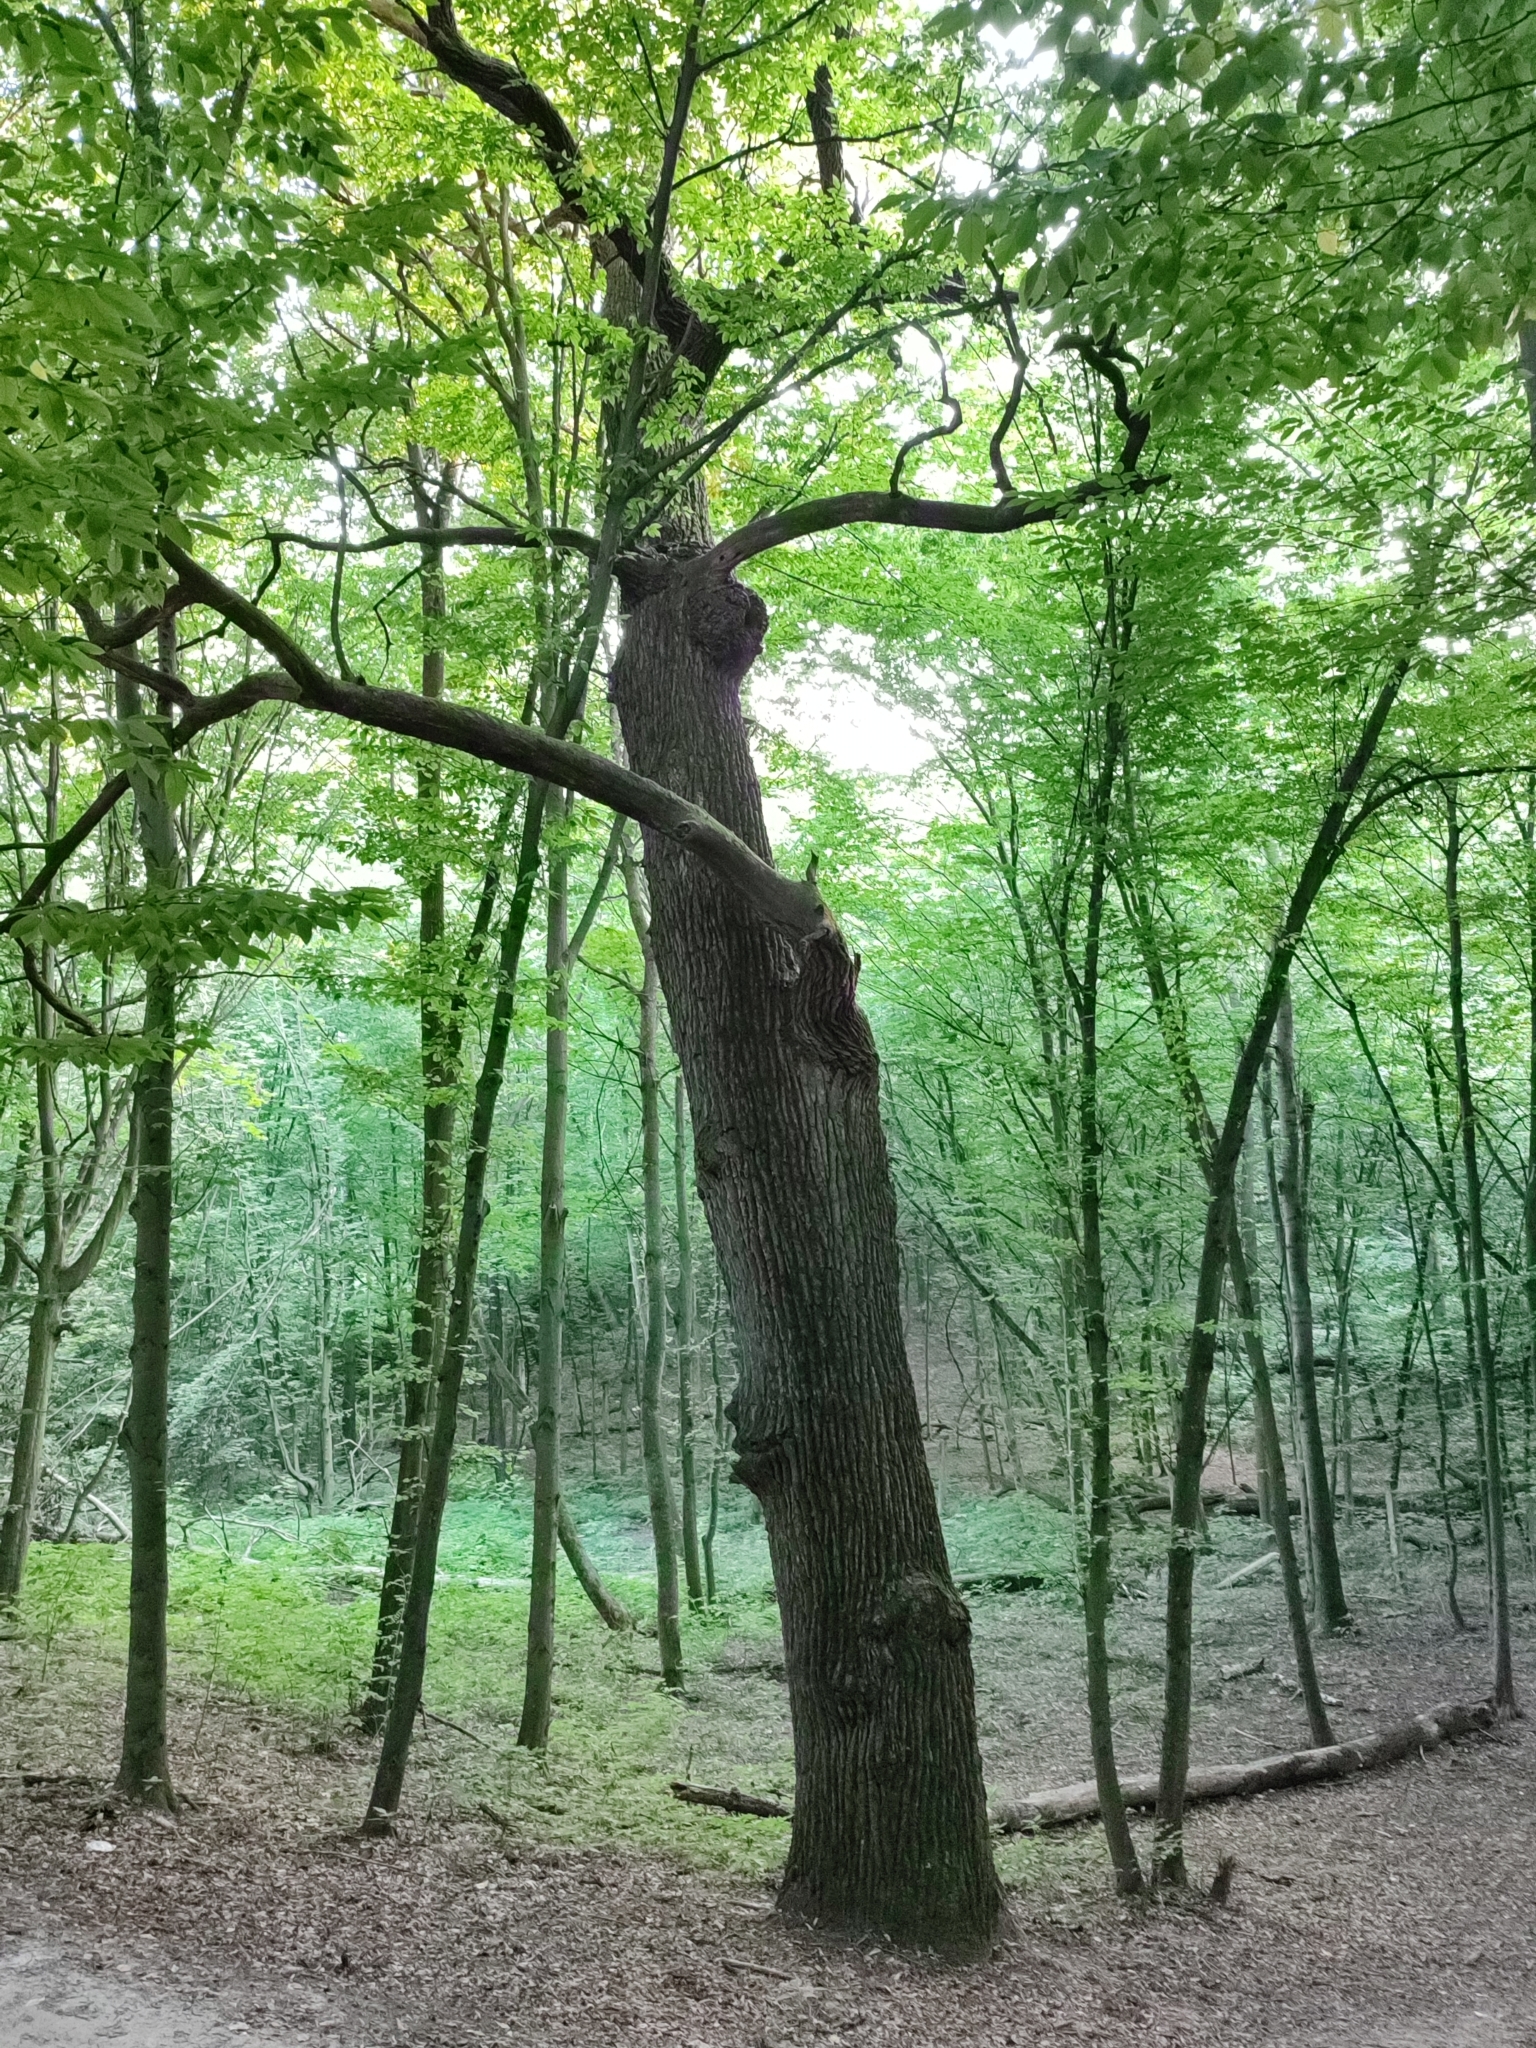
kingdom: Plantae
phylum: Tracheophyta
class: Magnoliopsida
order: Fagales
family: Fagaceae
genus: Quercus
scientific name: Quercus robur
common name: Pedunculate oak
